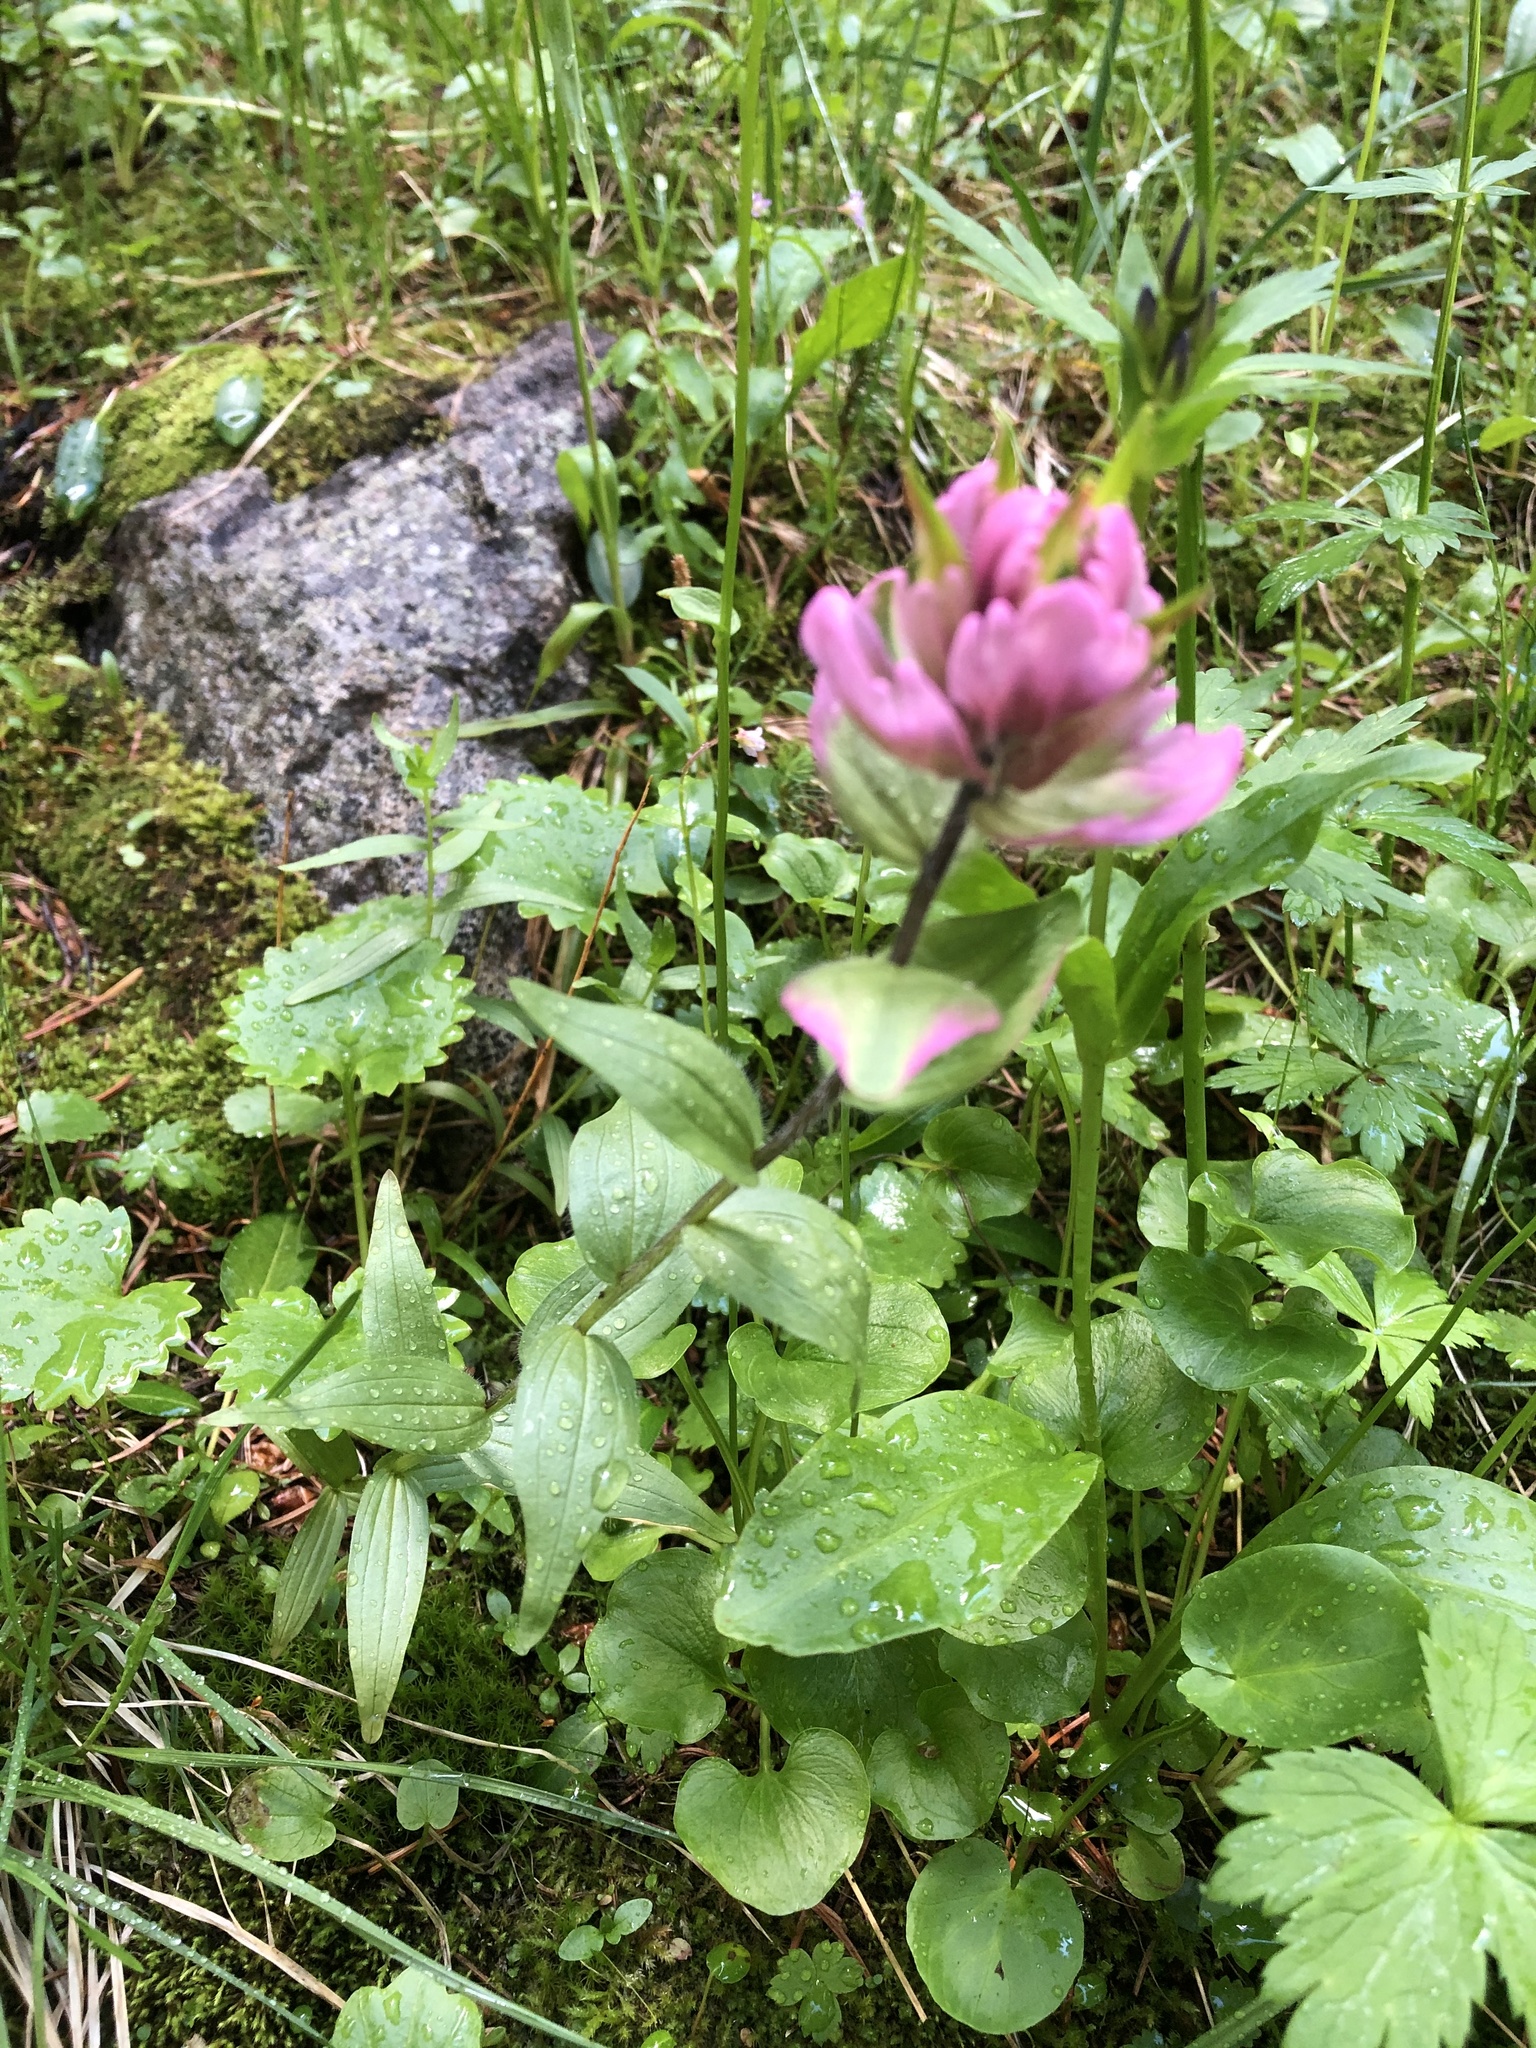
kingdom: Plantae
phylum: Tracheophyta
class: Magnoliopsida
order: Lamiales
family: Orobanchaceae
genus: Castilleja
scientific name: Castilleja rhexifolia
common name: Rocky mountain paintbrush
